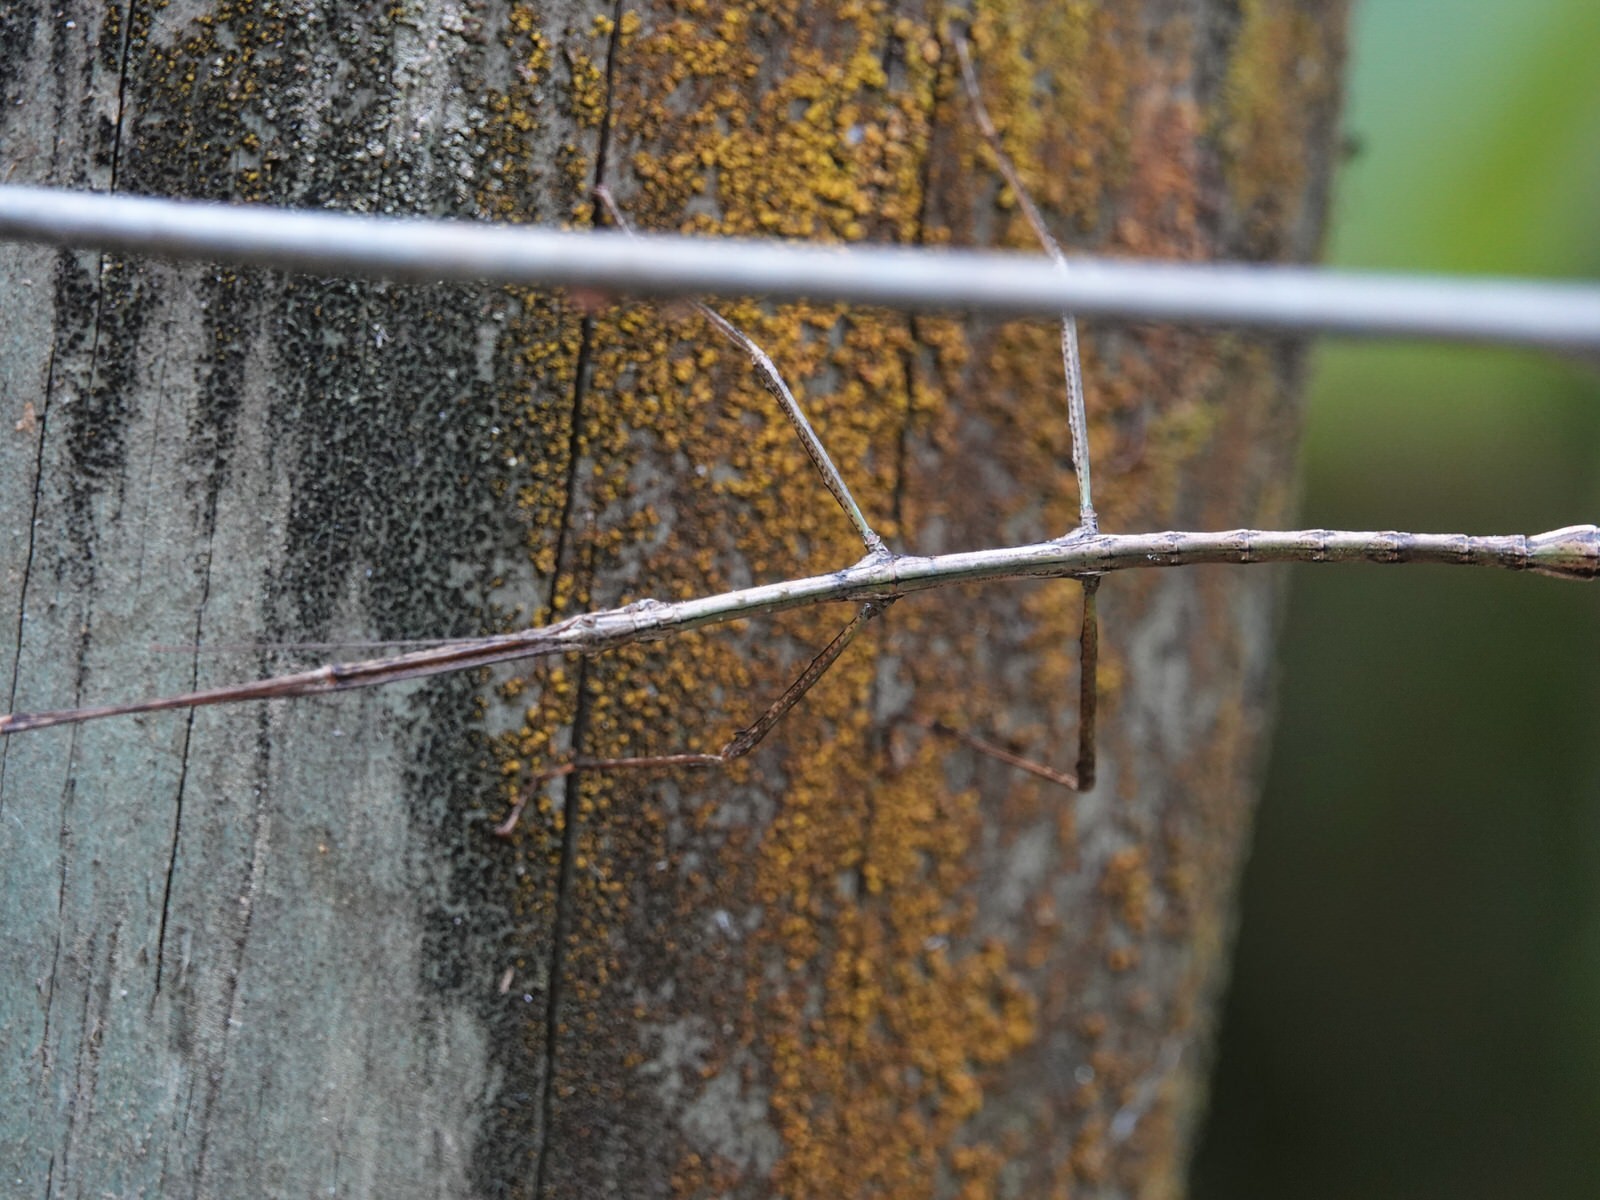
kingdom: Animalia
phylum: Arthropoda
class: Insecta
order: Phasmida
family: Phasmatidae
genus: Clitarchus
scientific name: Clitarchus hookeri
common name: Smooth stick insect
